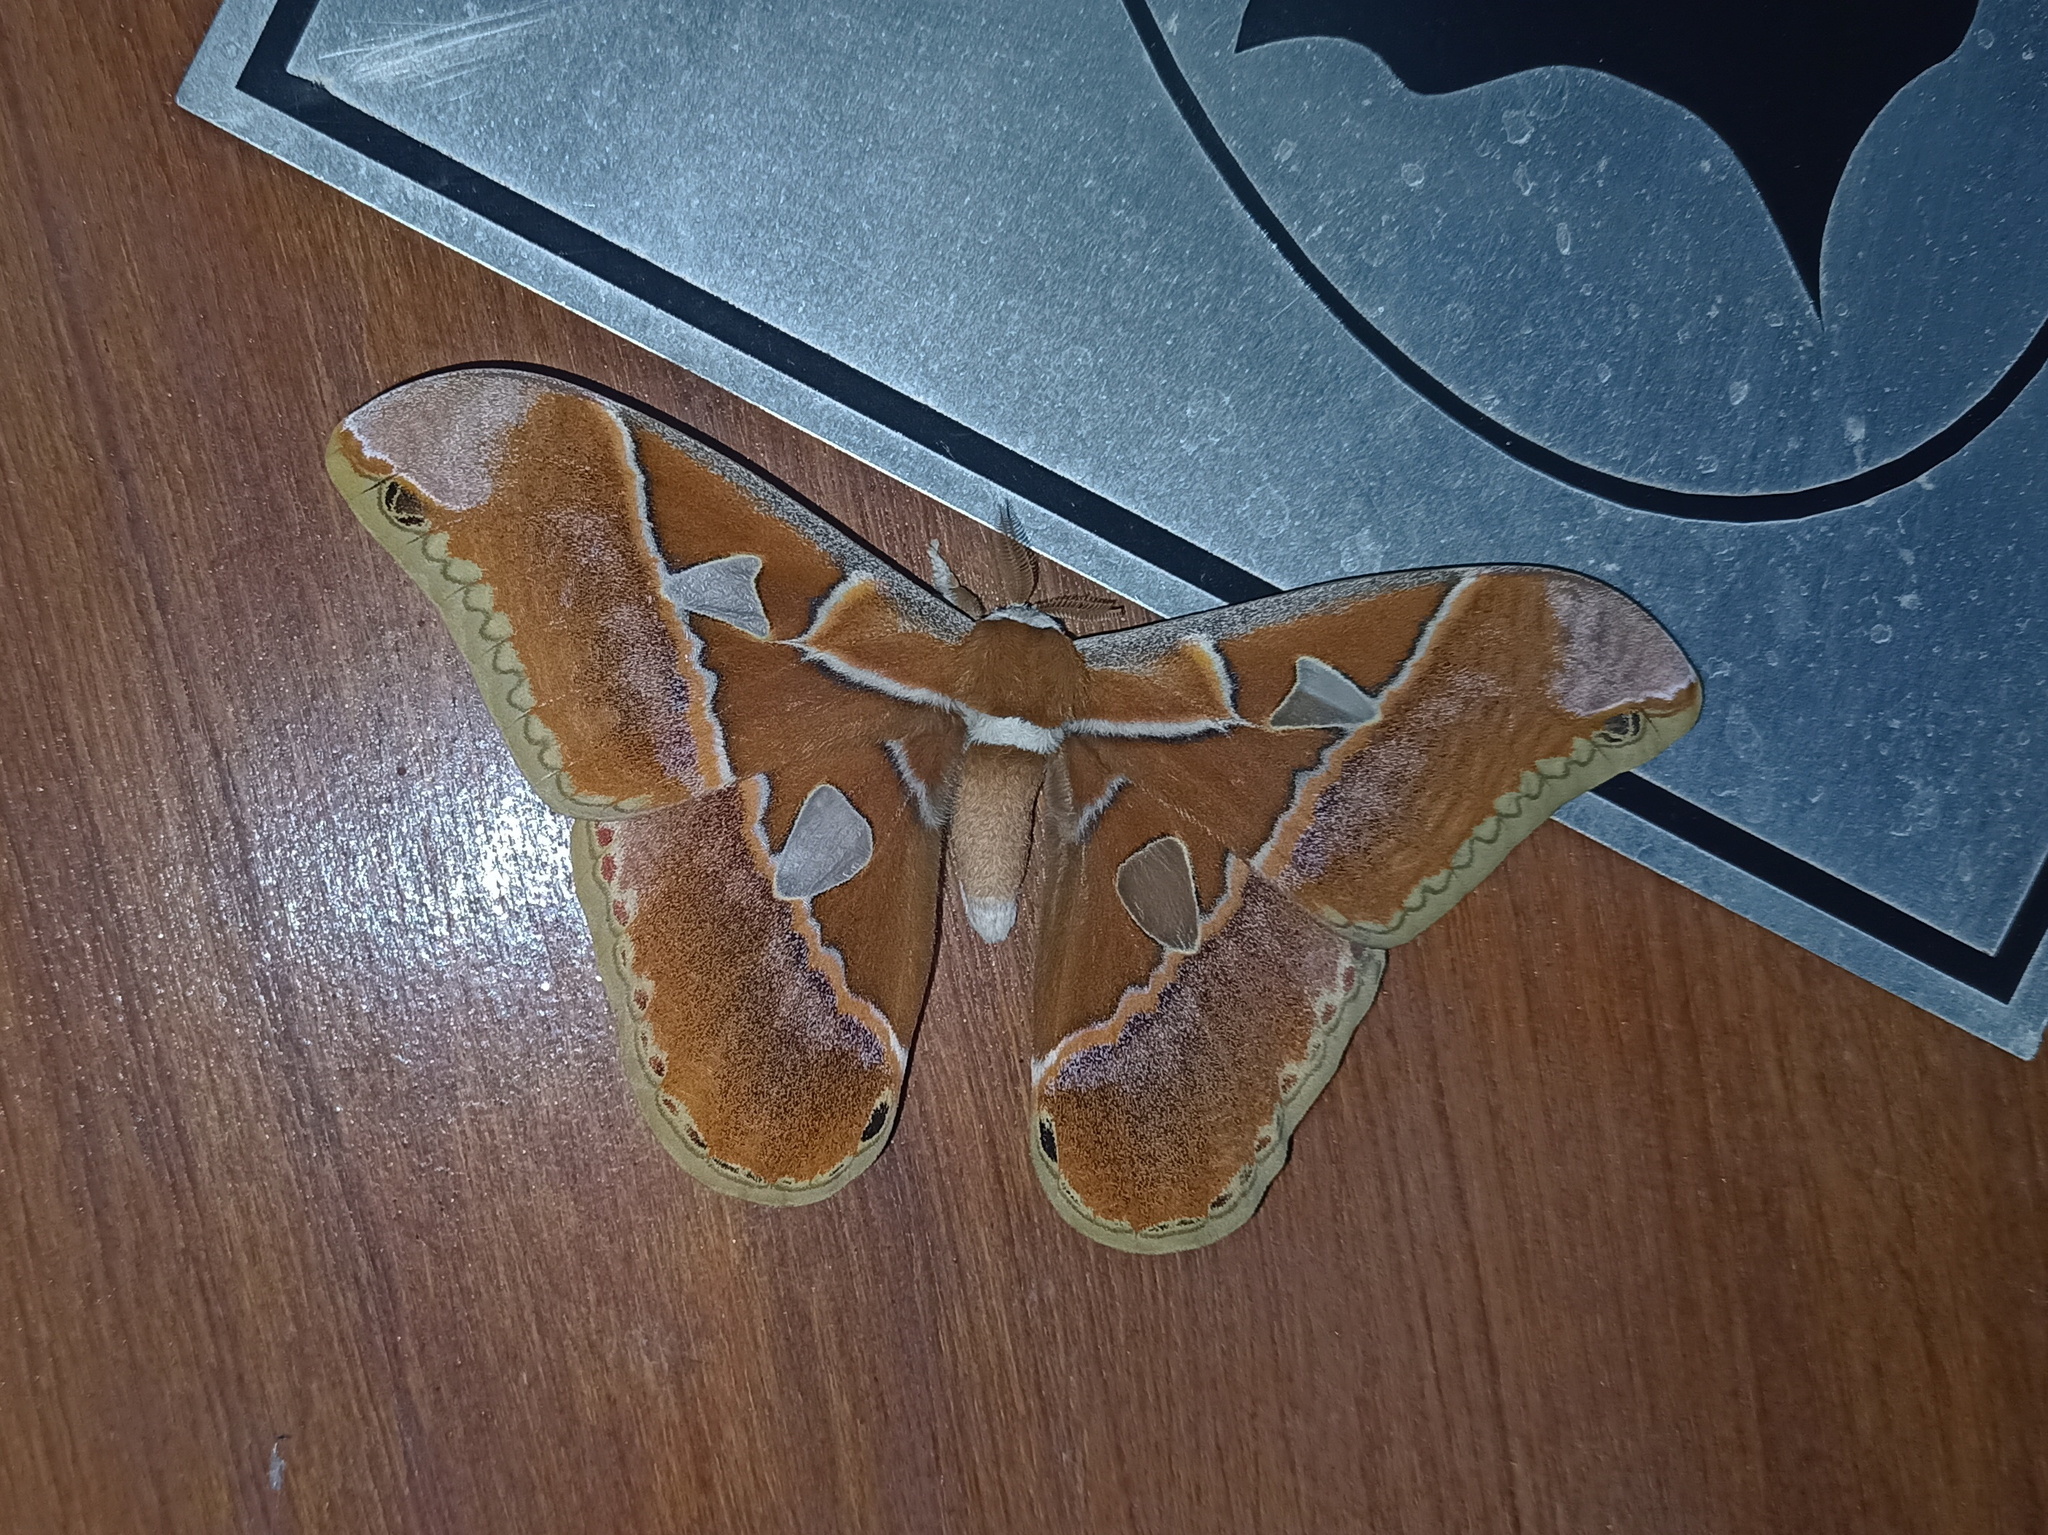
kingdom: Animalia
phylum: Arthropoda
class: Insecta
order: Lepidoptera
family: Saturniidae
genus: Rothschildia
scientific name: Rothschildia hesperus
